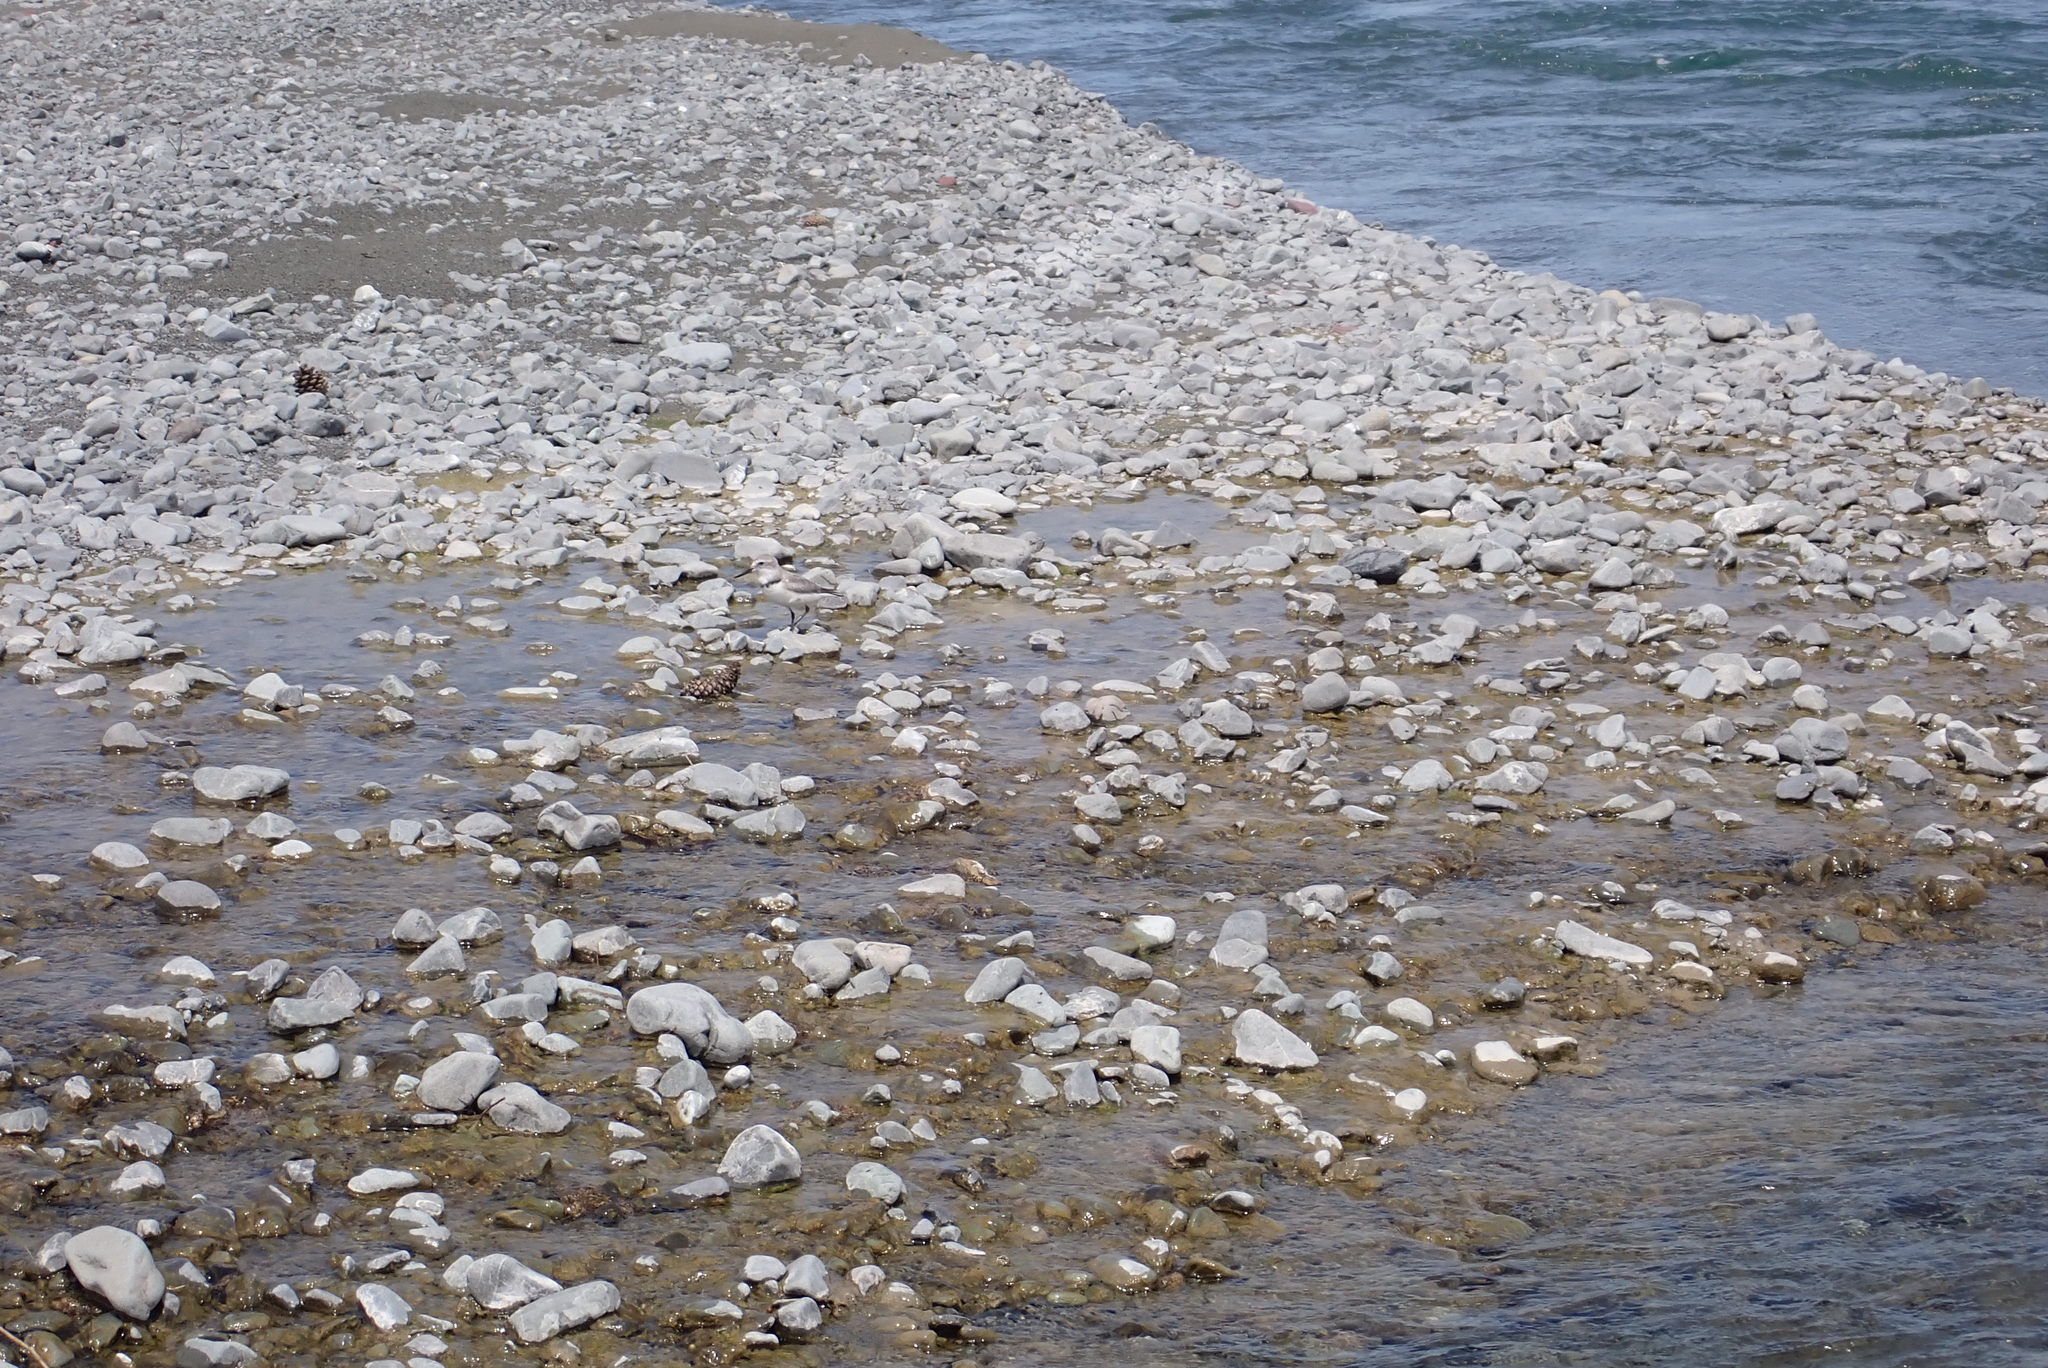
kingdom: Animalia
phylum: Chordata
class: Aves
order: Charadriiformes
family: Charadriidae
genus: Anarhynchus
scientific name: Anarhynchus frontalis
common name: Wrybill
